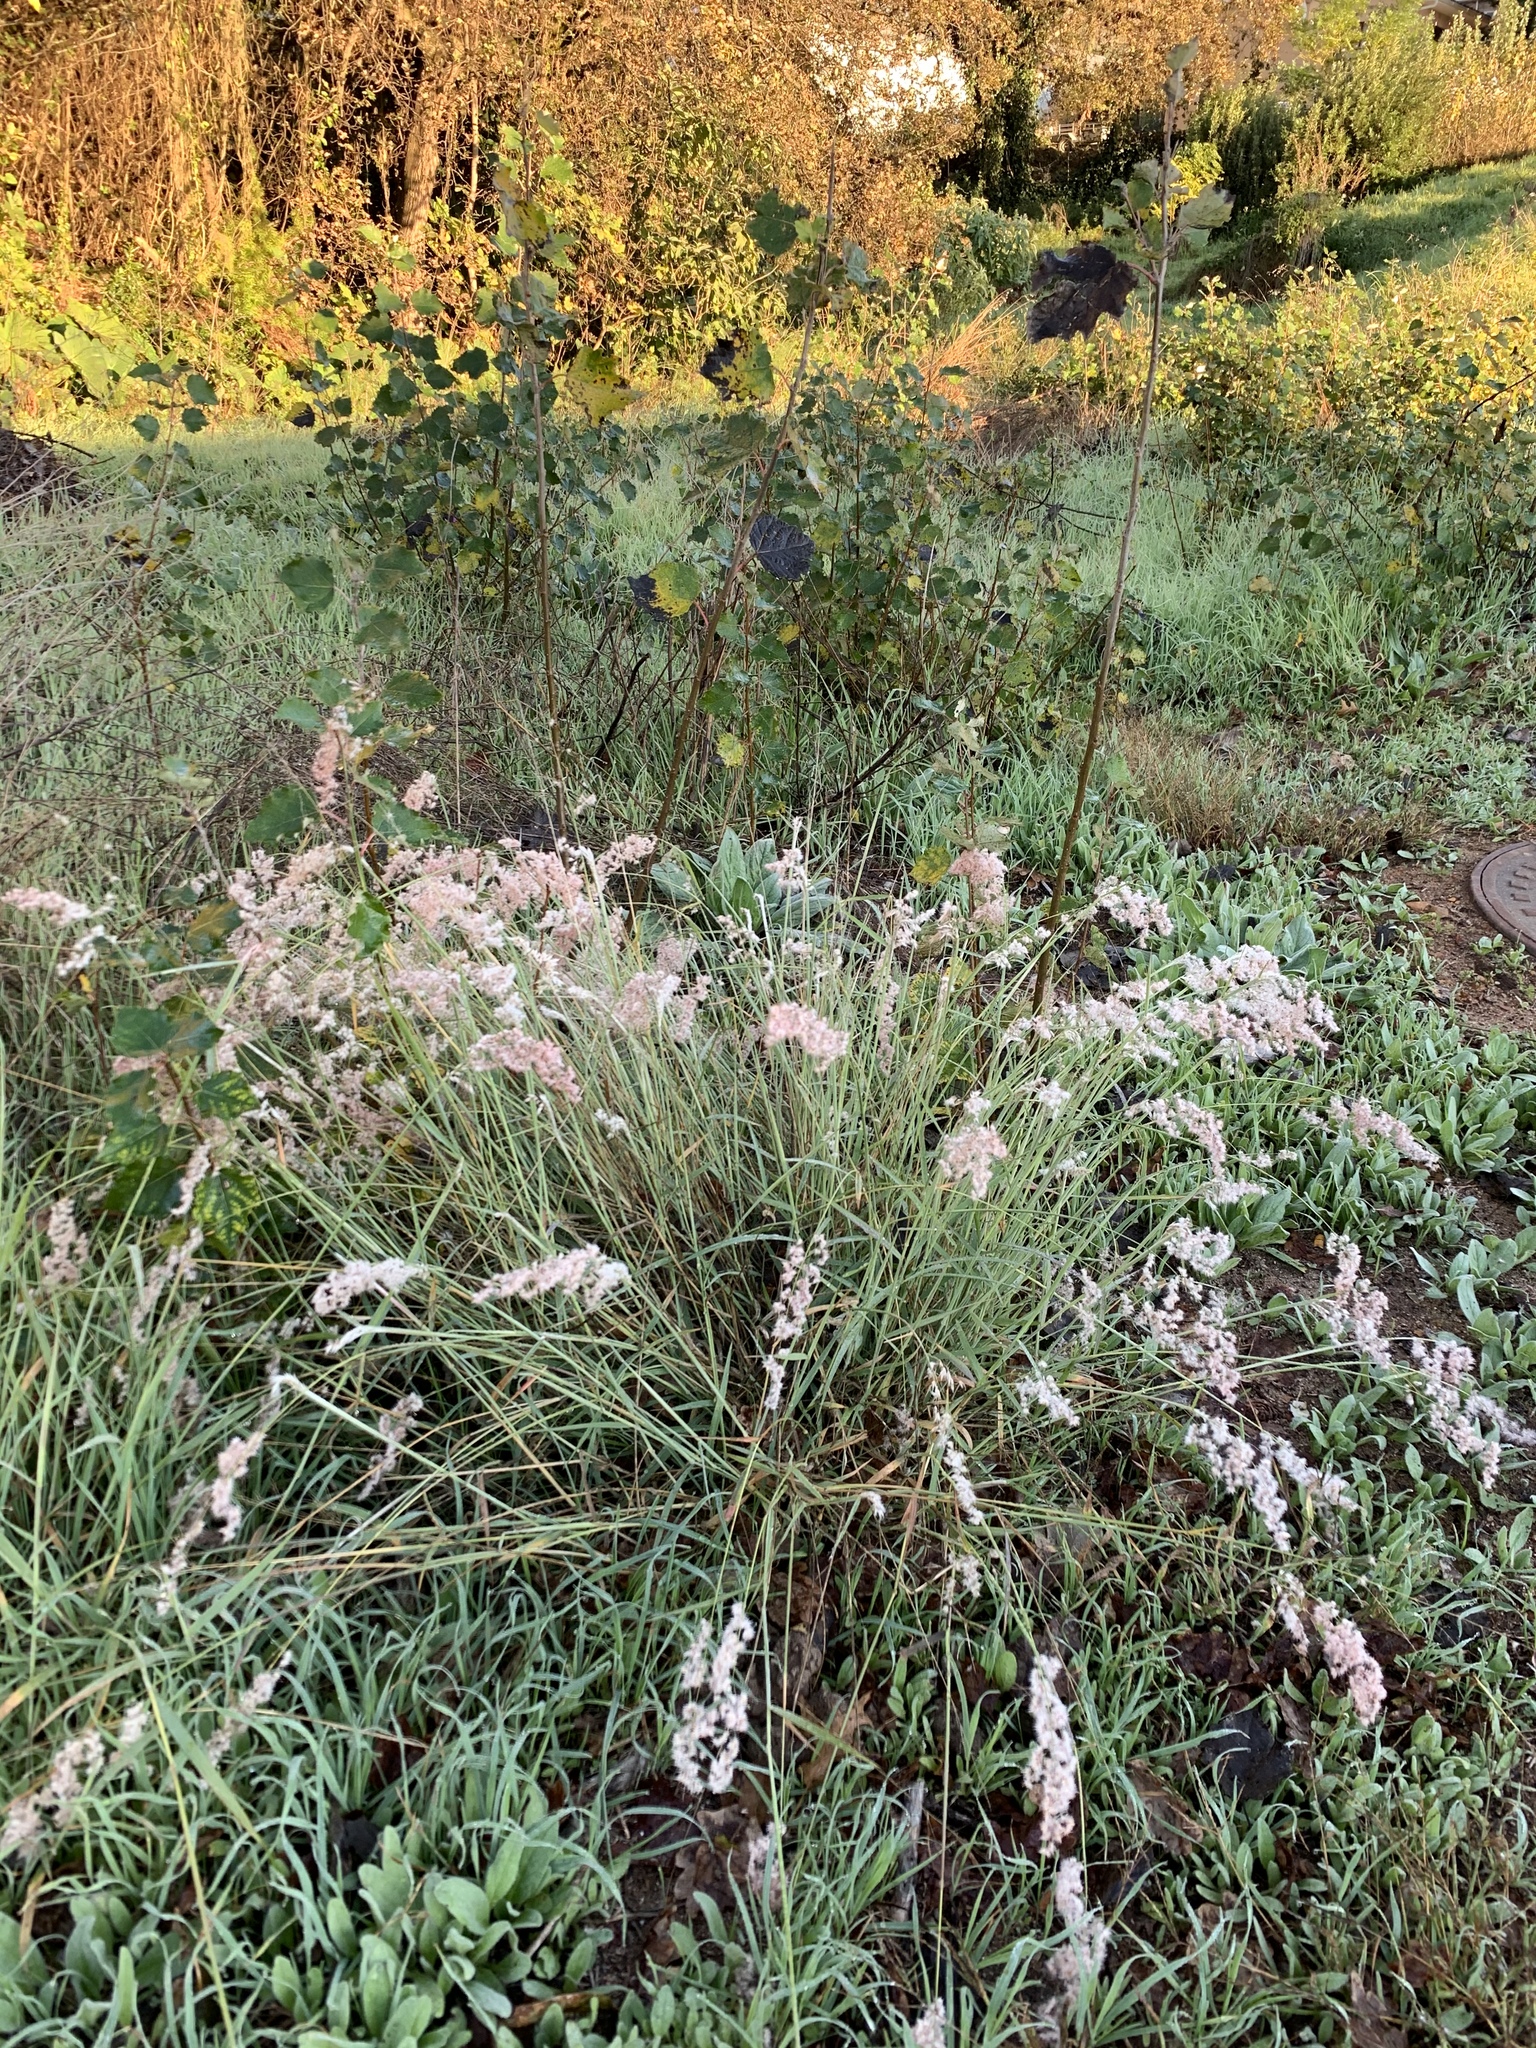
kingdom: Plantae
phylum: Tracheophyta
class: Liliopsida
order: Poales
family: Poaceae
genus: Melinis
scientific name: Melinis repens
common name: Rose natal grass
